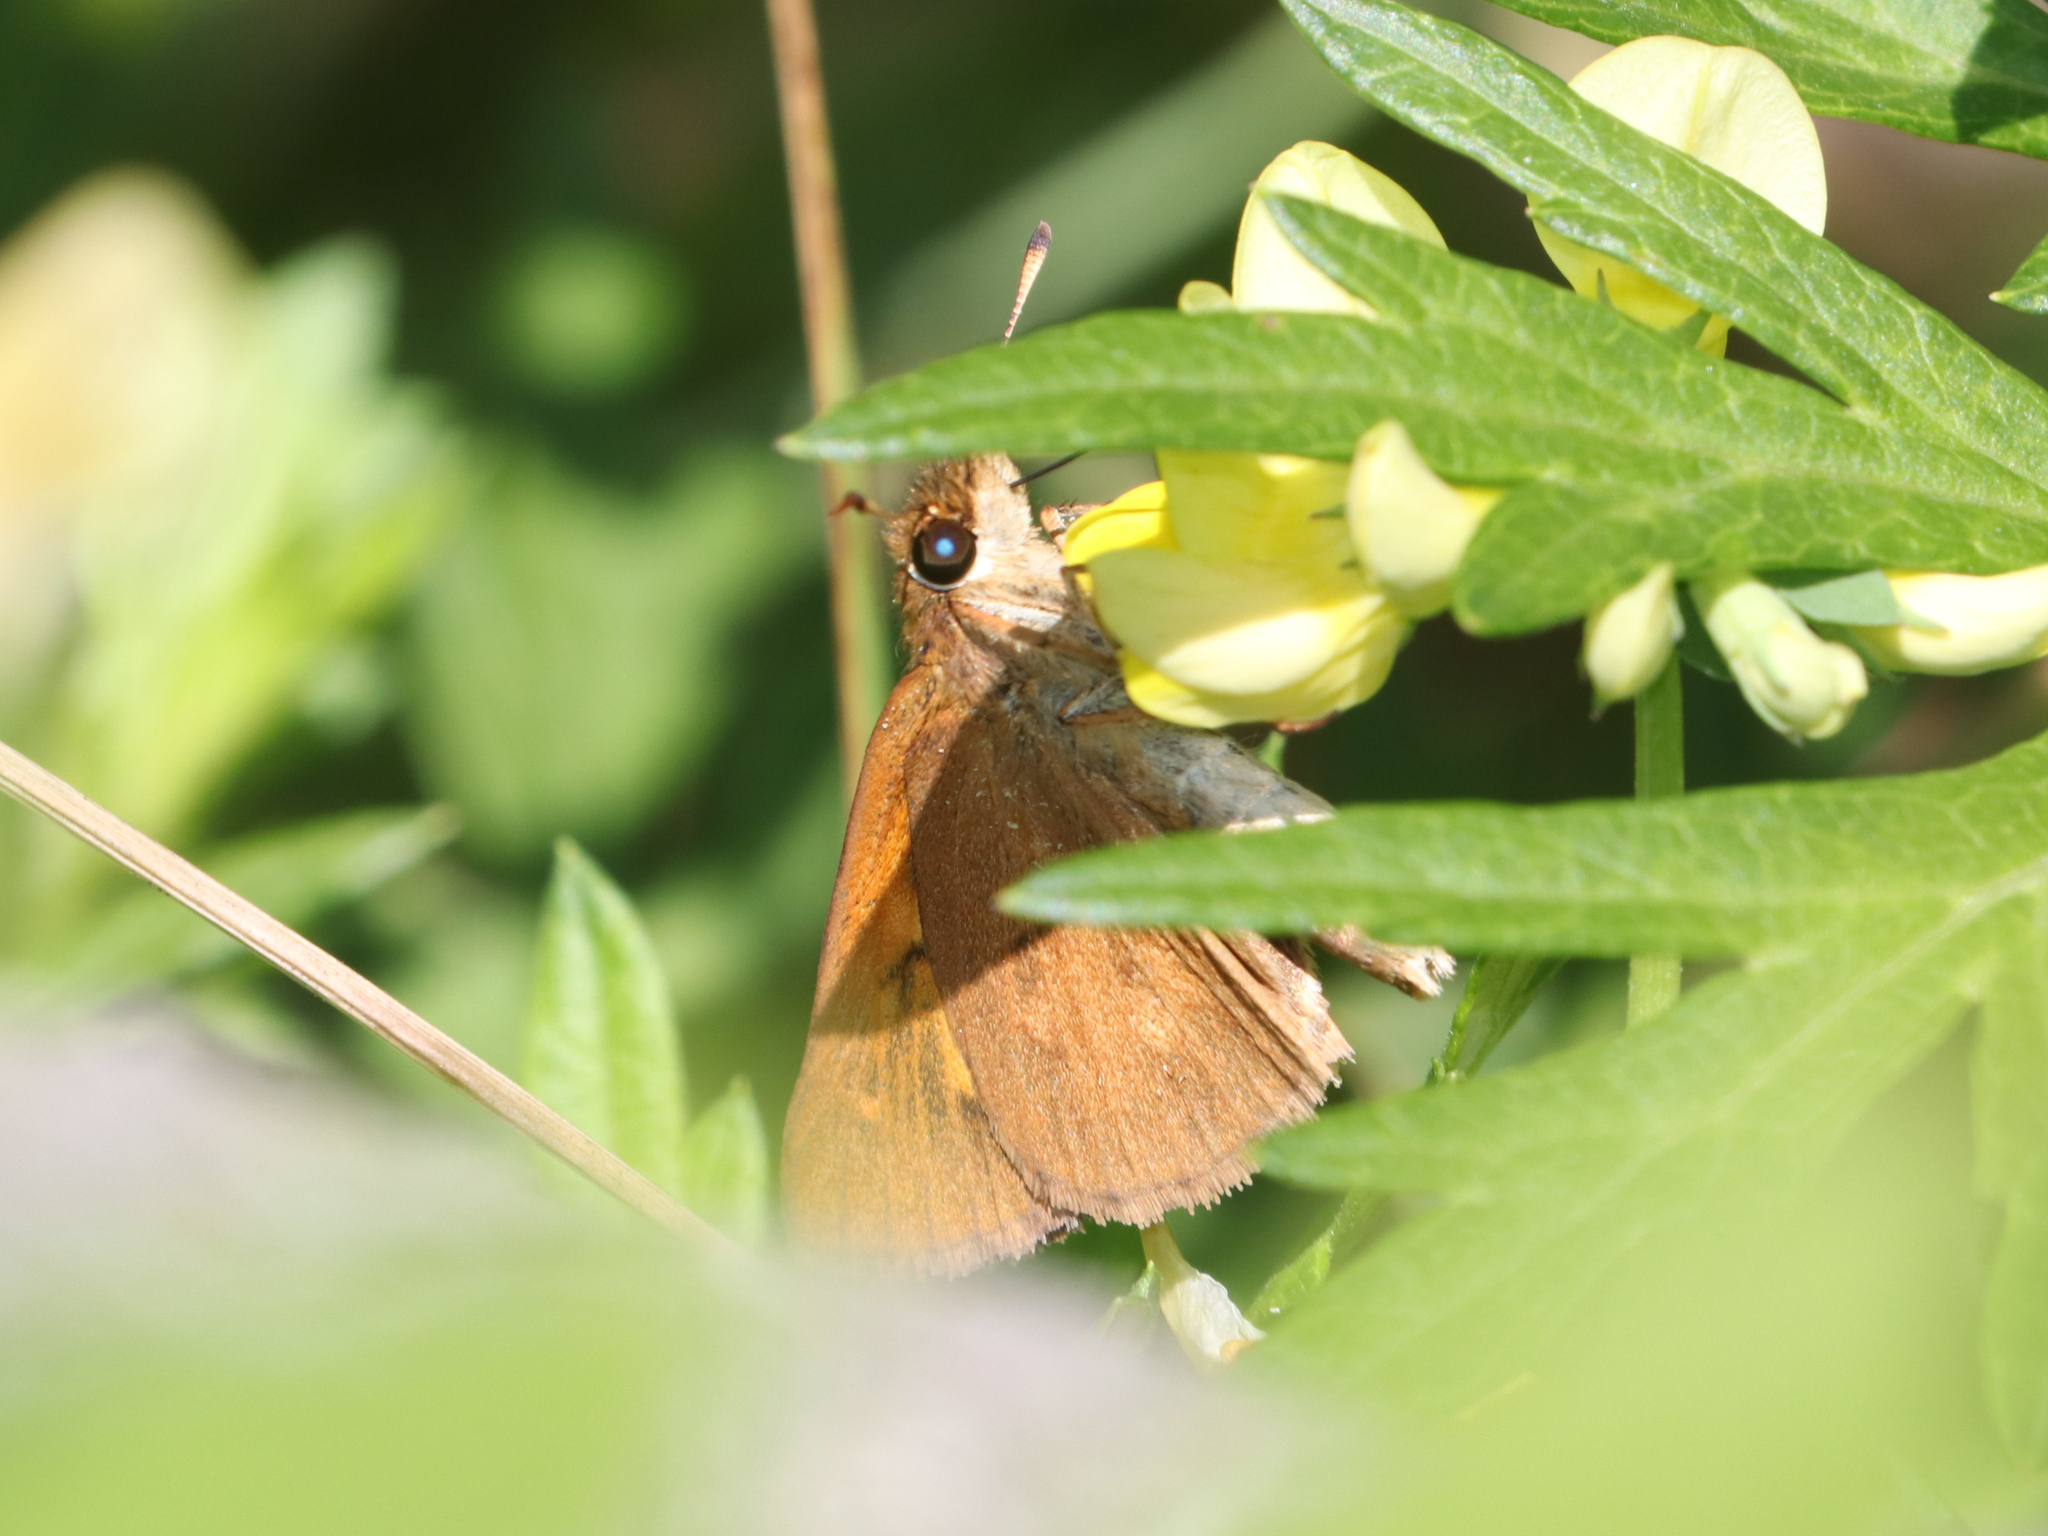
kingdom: Animalia
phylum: Arthropoda
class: Insecta
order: Lepidoptera
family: Hesperiidae
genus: Poanes
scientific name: Poanes viator
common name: Broad-winged skipper
